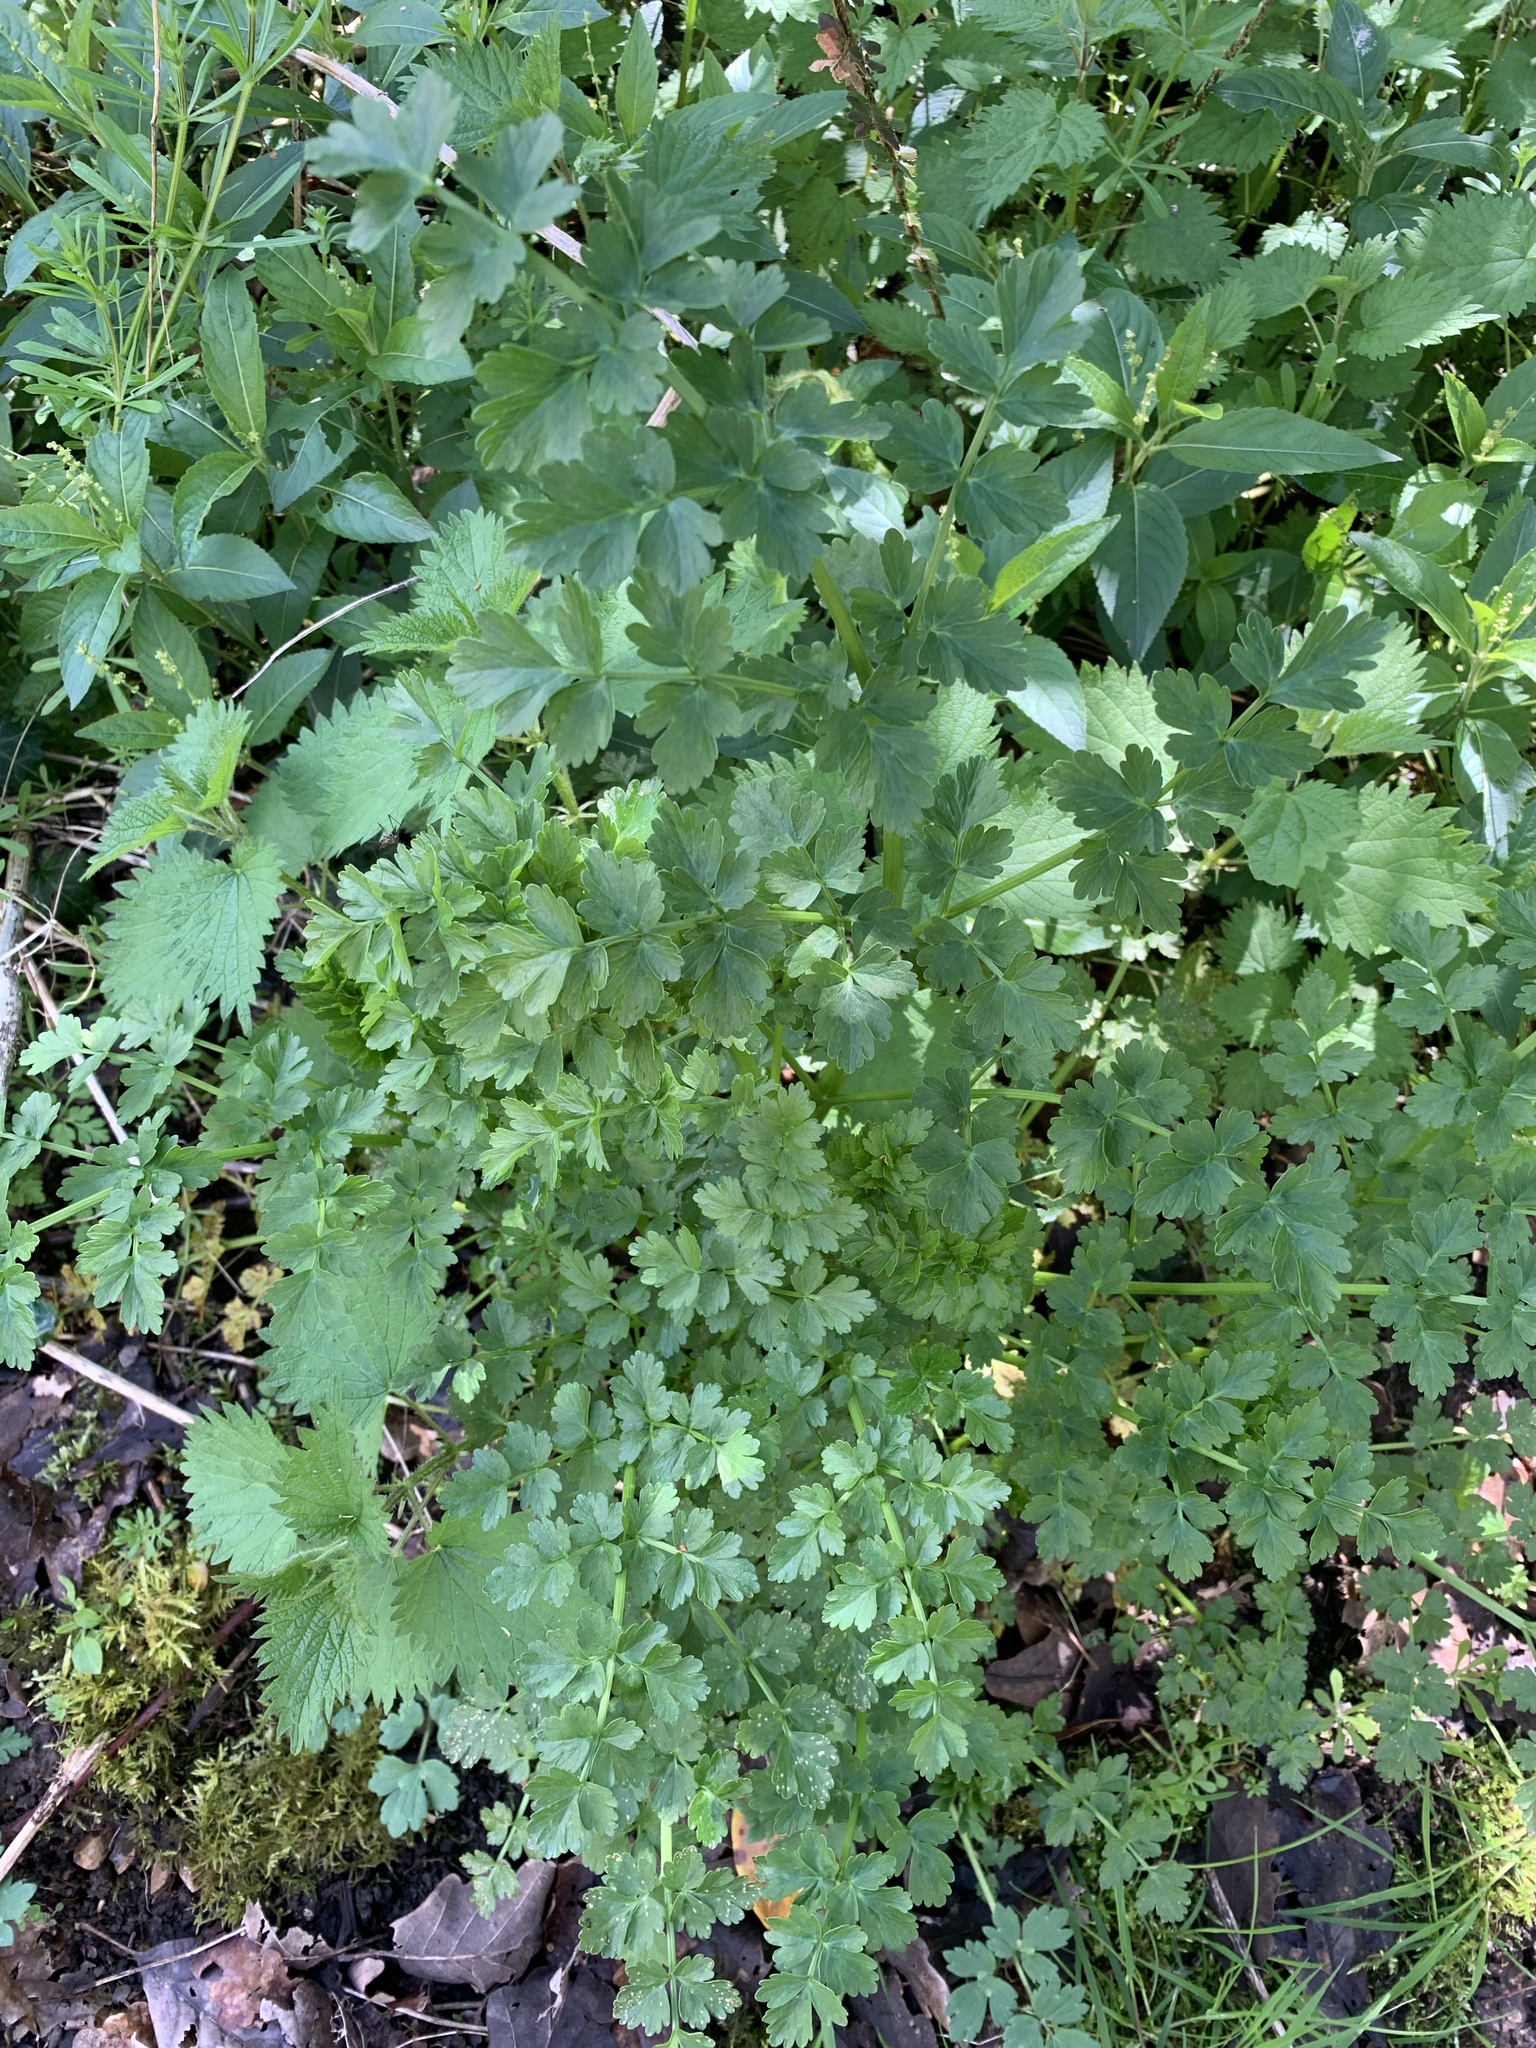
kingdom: Plantae
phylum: Tracheophyta
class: Magnoliopsida
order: Apiales
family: Apiaceae
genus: Petroselinum
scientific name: Petroselinum crispum
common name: Parsley
